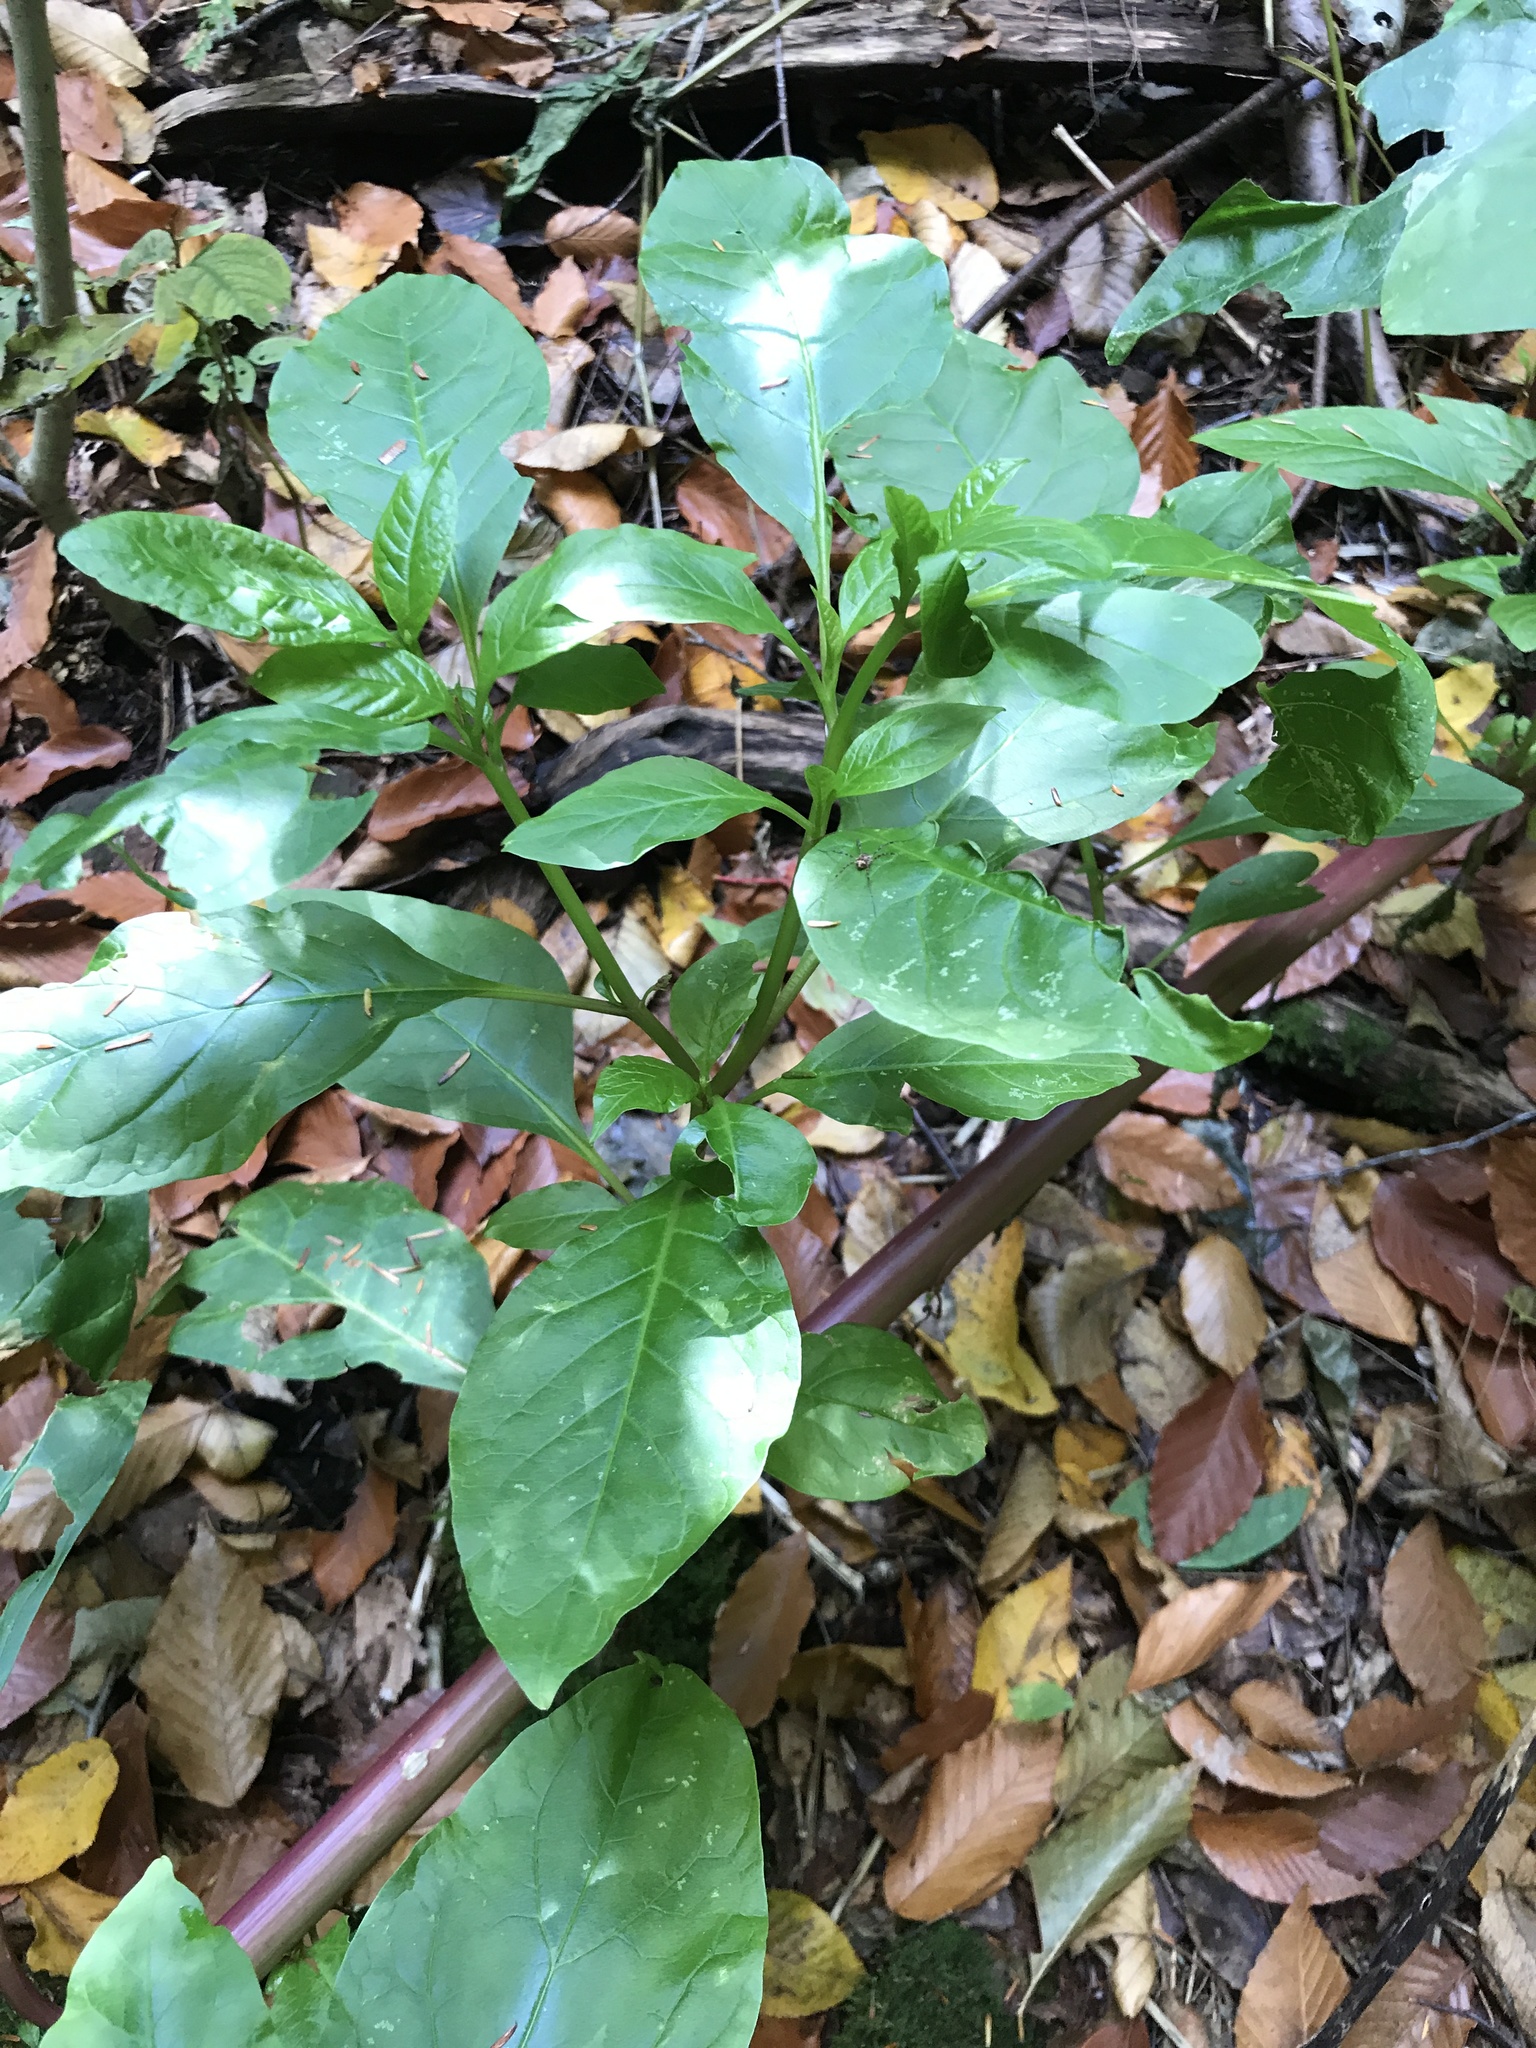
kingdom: Plantae
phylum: Tracheophyta
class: Magnoliopsida
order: Caryophyllales
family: Phytolaccaceae
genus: Phytolacca
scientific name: Phytolacca americana
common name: American pokeweed
